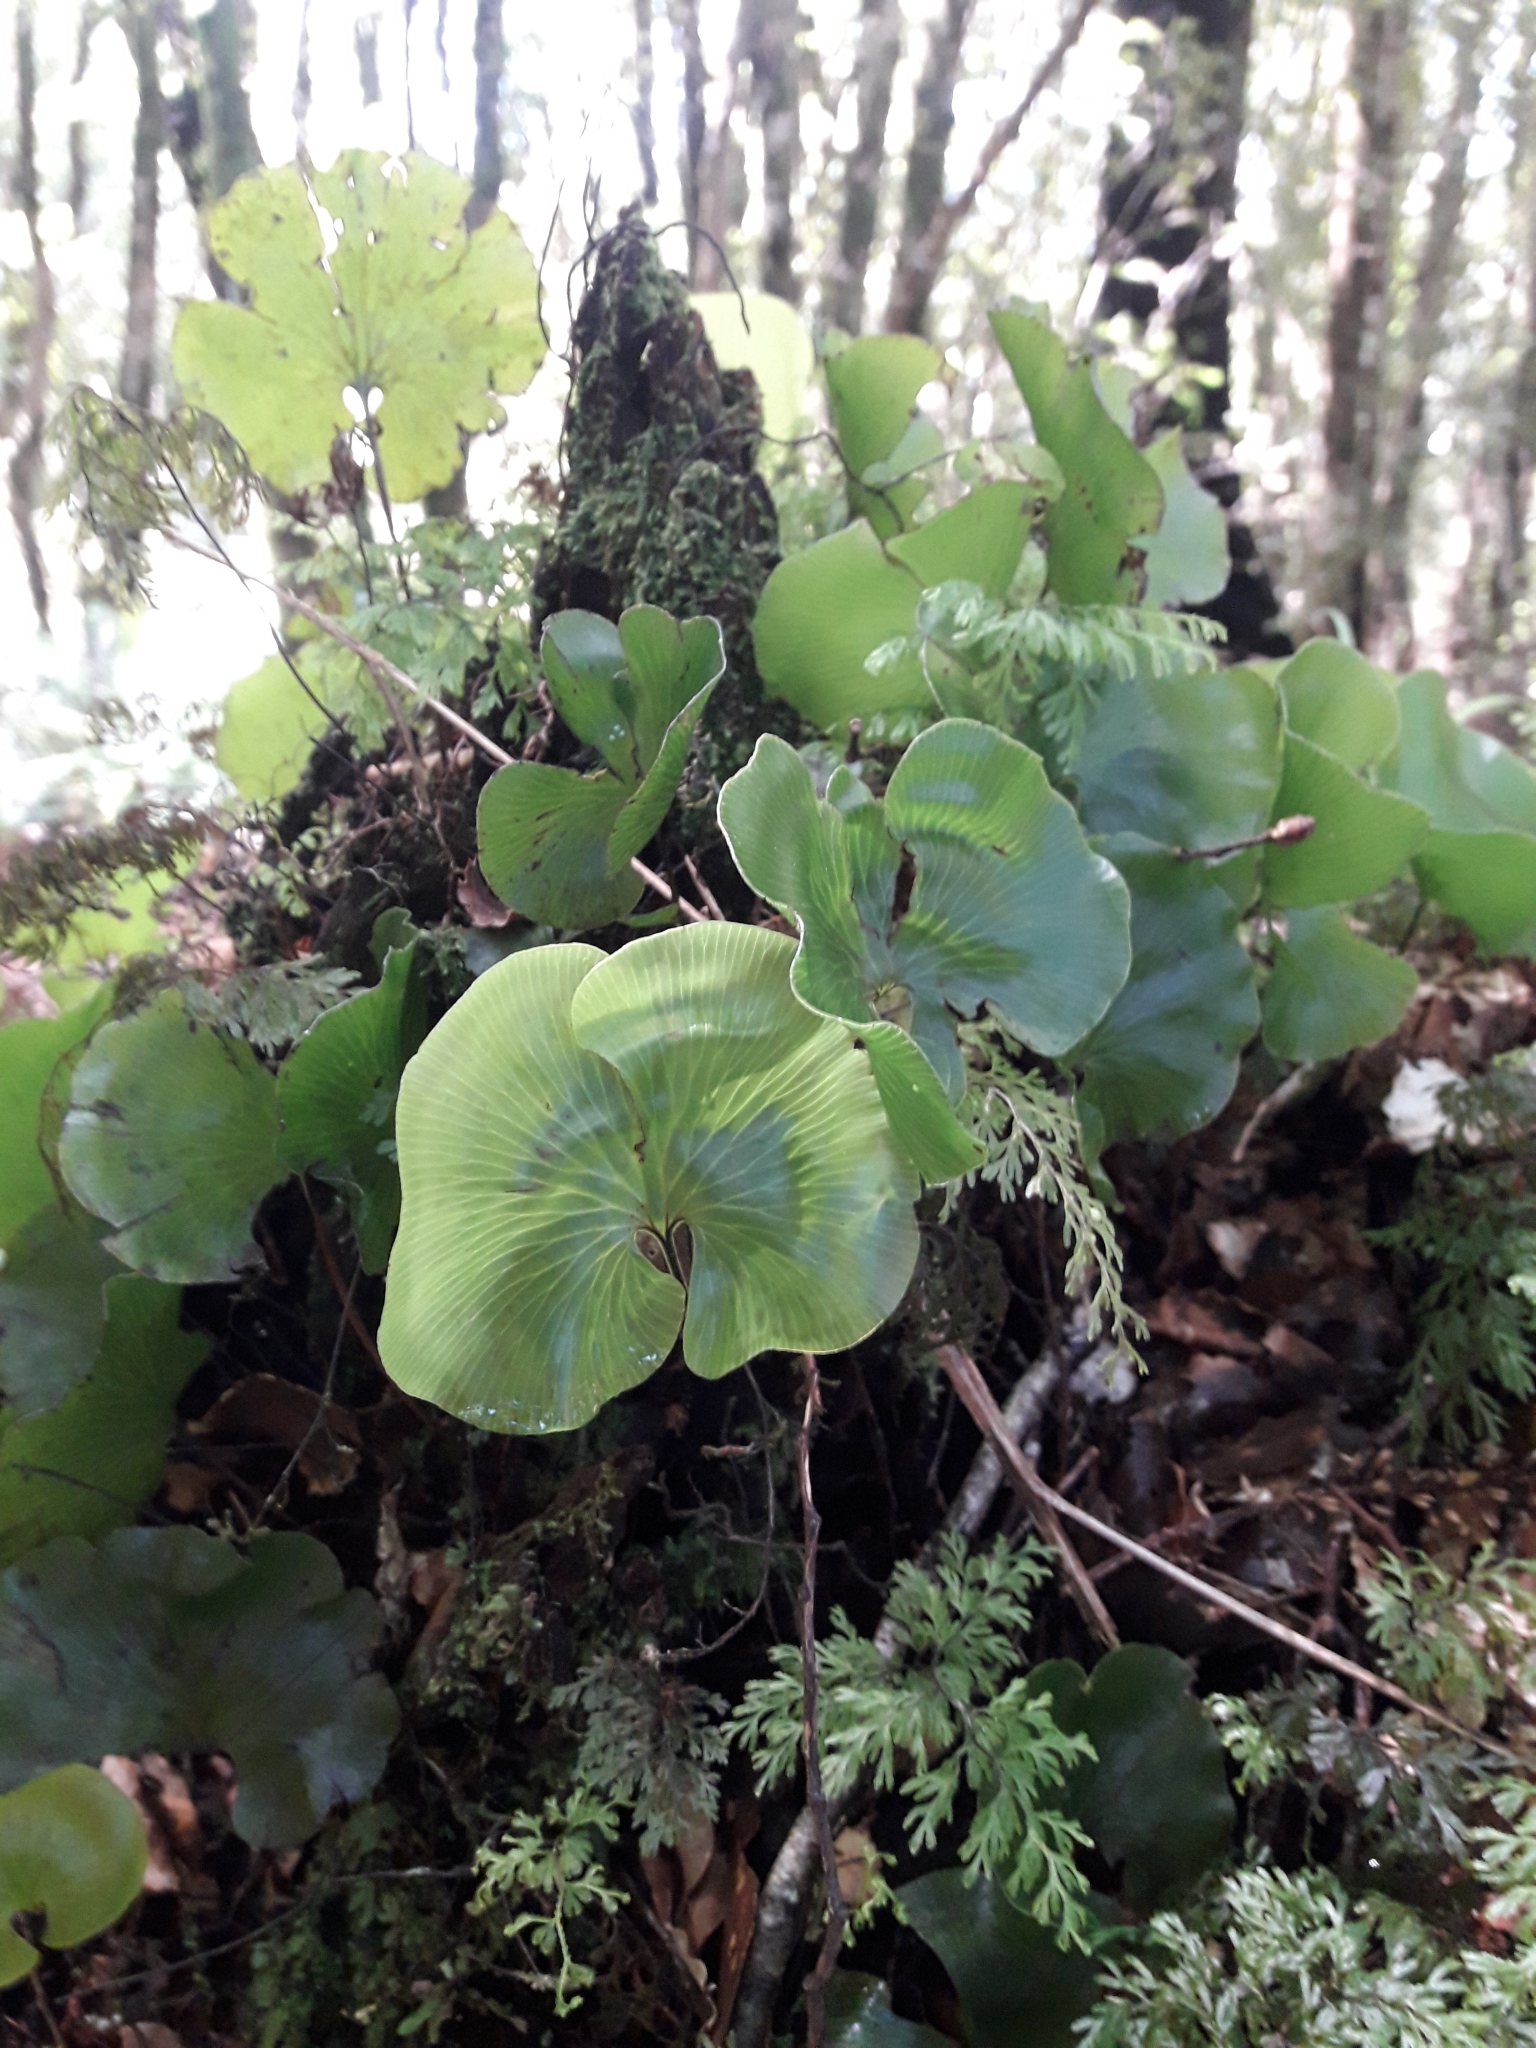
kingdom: Plantae
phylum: Tracheophyta
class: Polypodiopsida
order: Hymenophyllales
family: Hymenophyllaceae
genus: Hymenophyllum
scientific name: Hymenophyllum nephrophyllum
